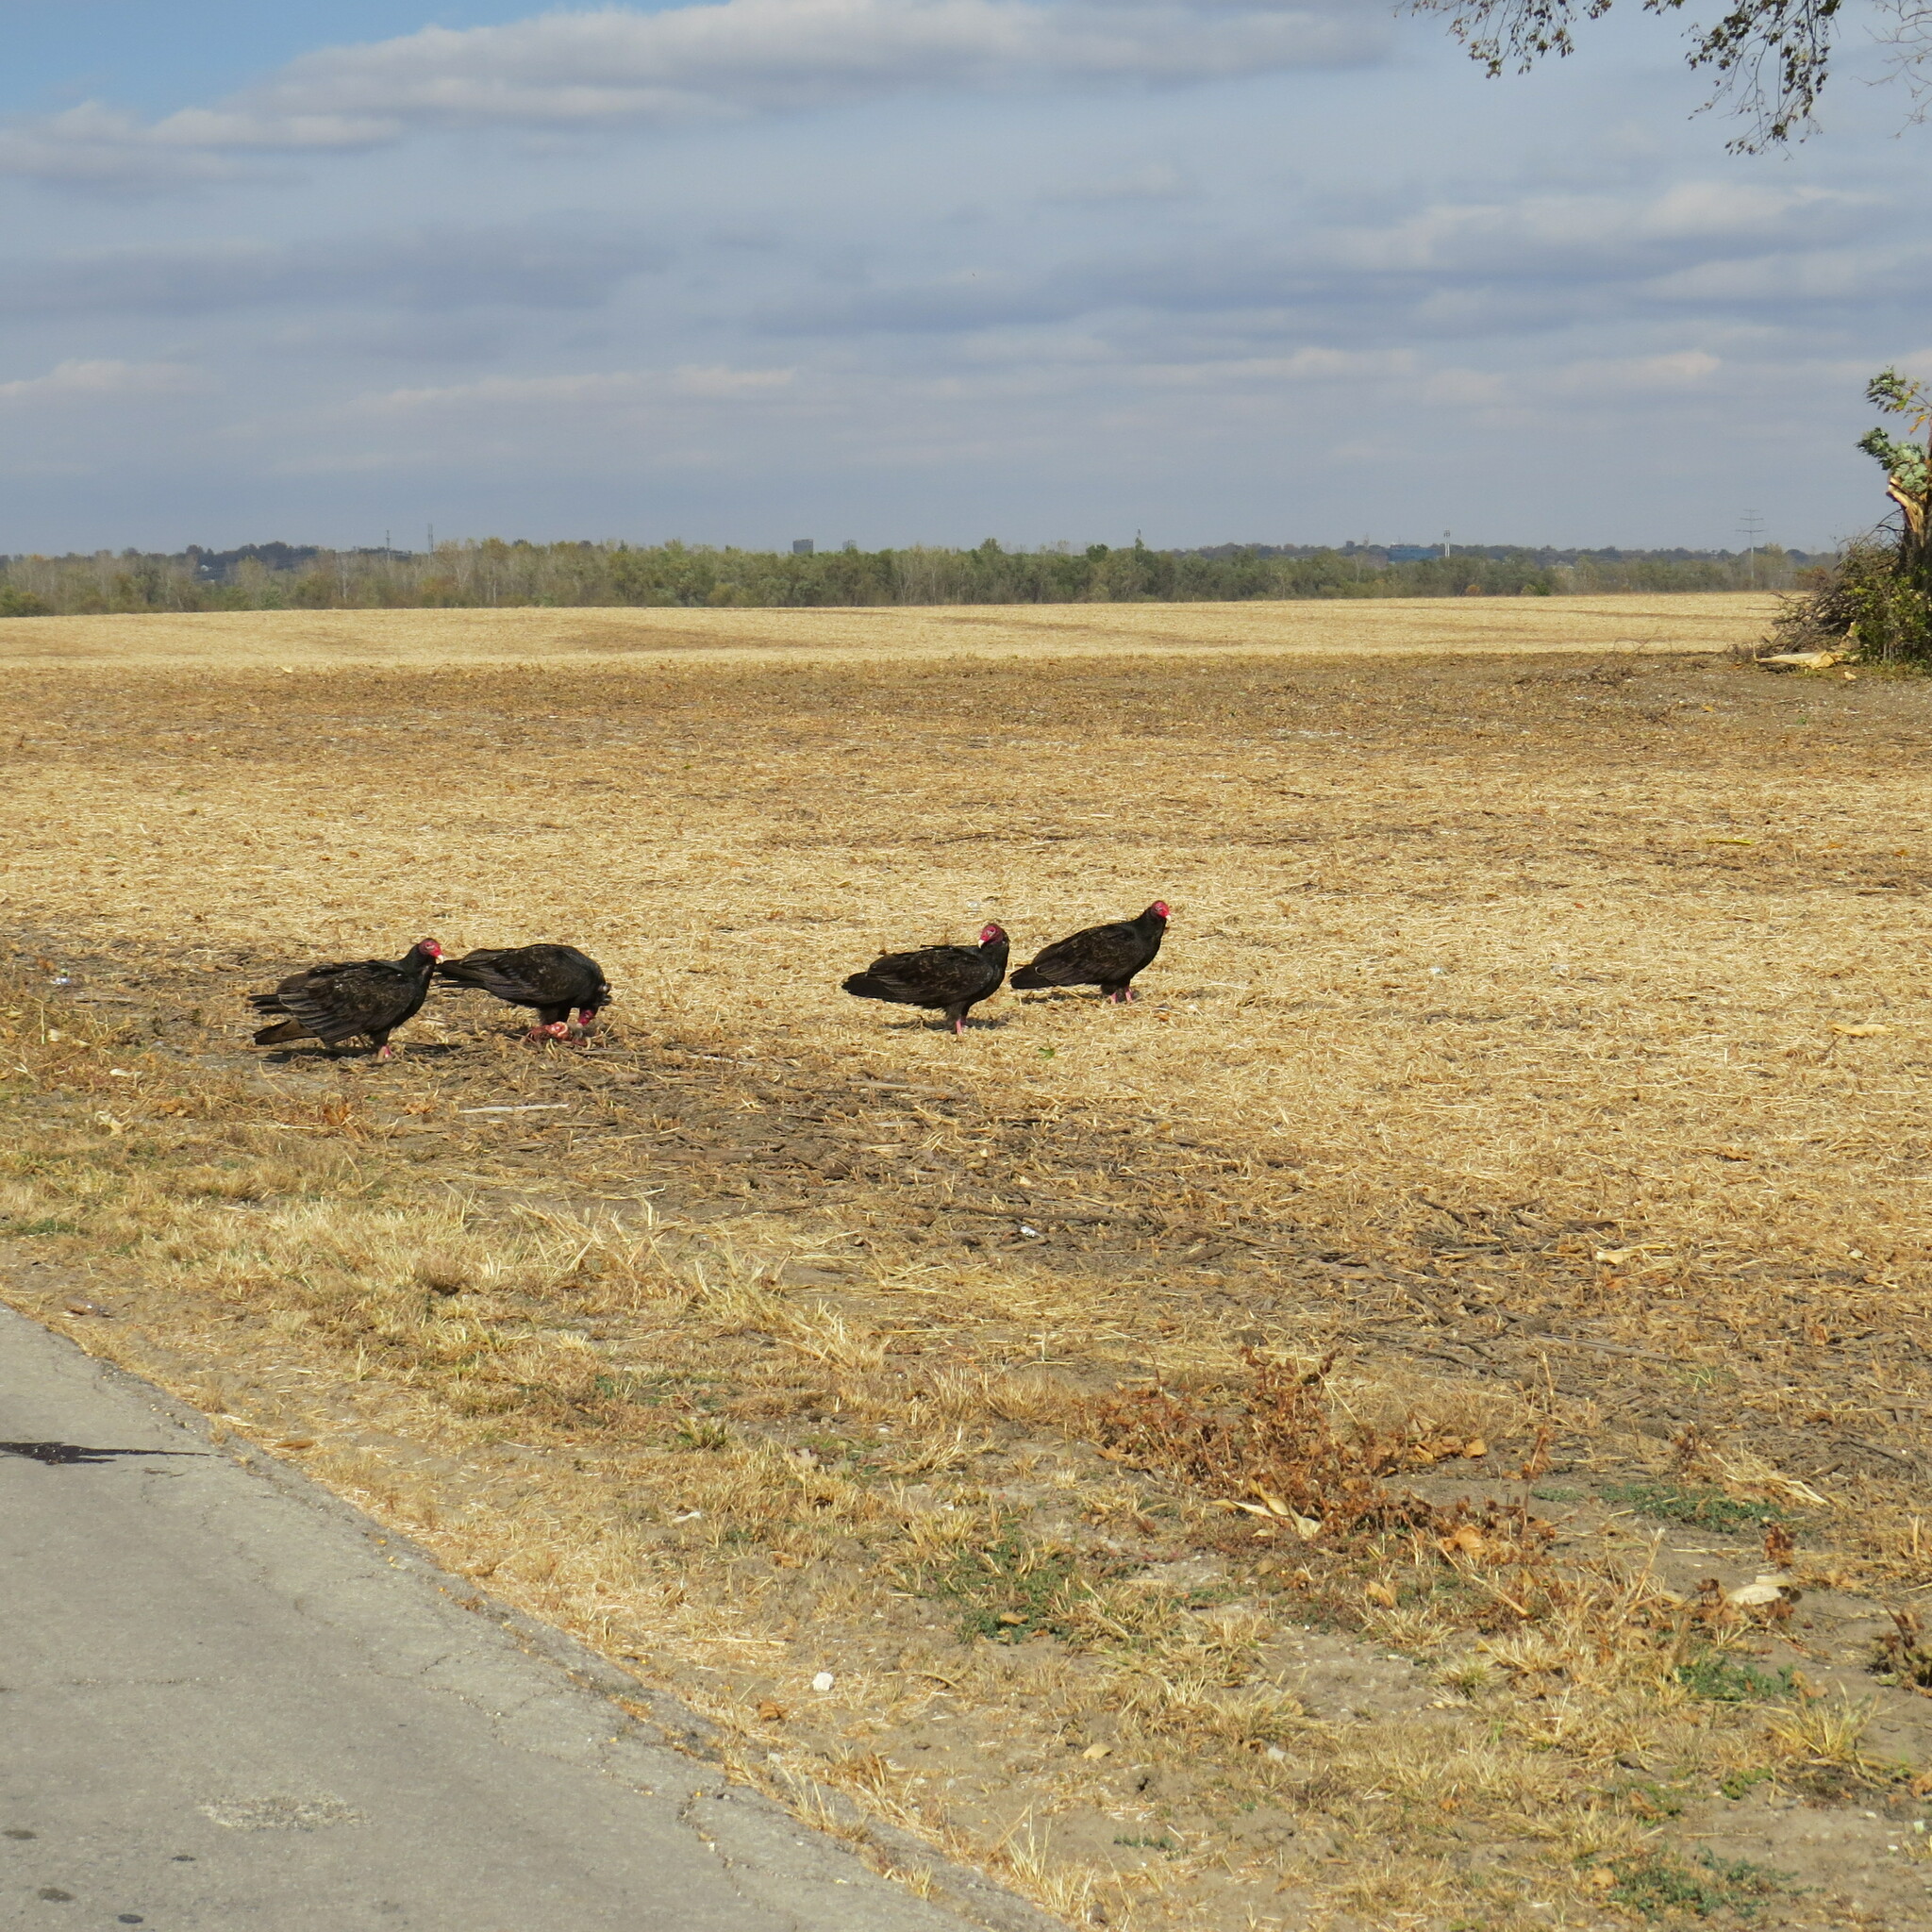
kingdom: Animalia
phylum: Chordata
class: Aves
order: Accipitriformes
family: Cathartidae
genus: Cathartes
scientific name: Cathartes aura
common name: Turkey vulture
